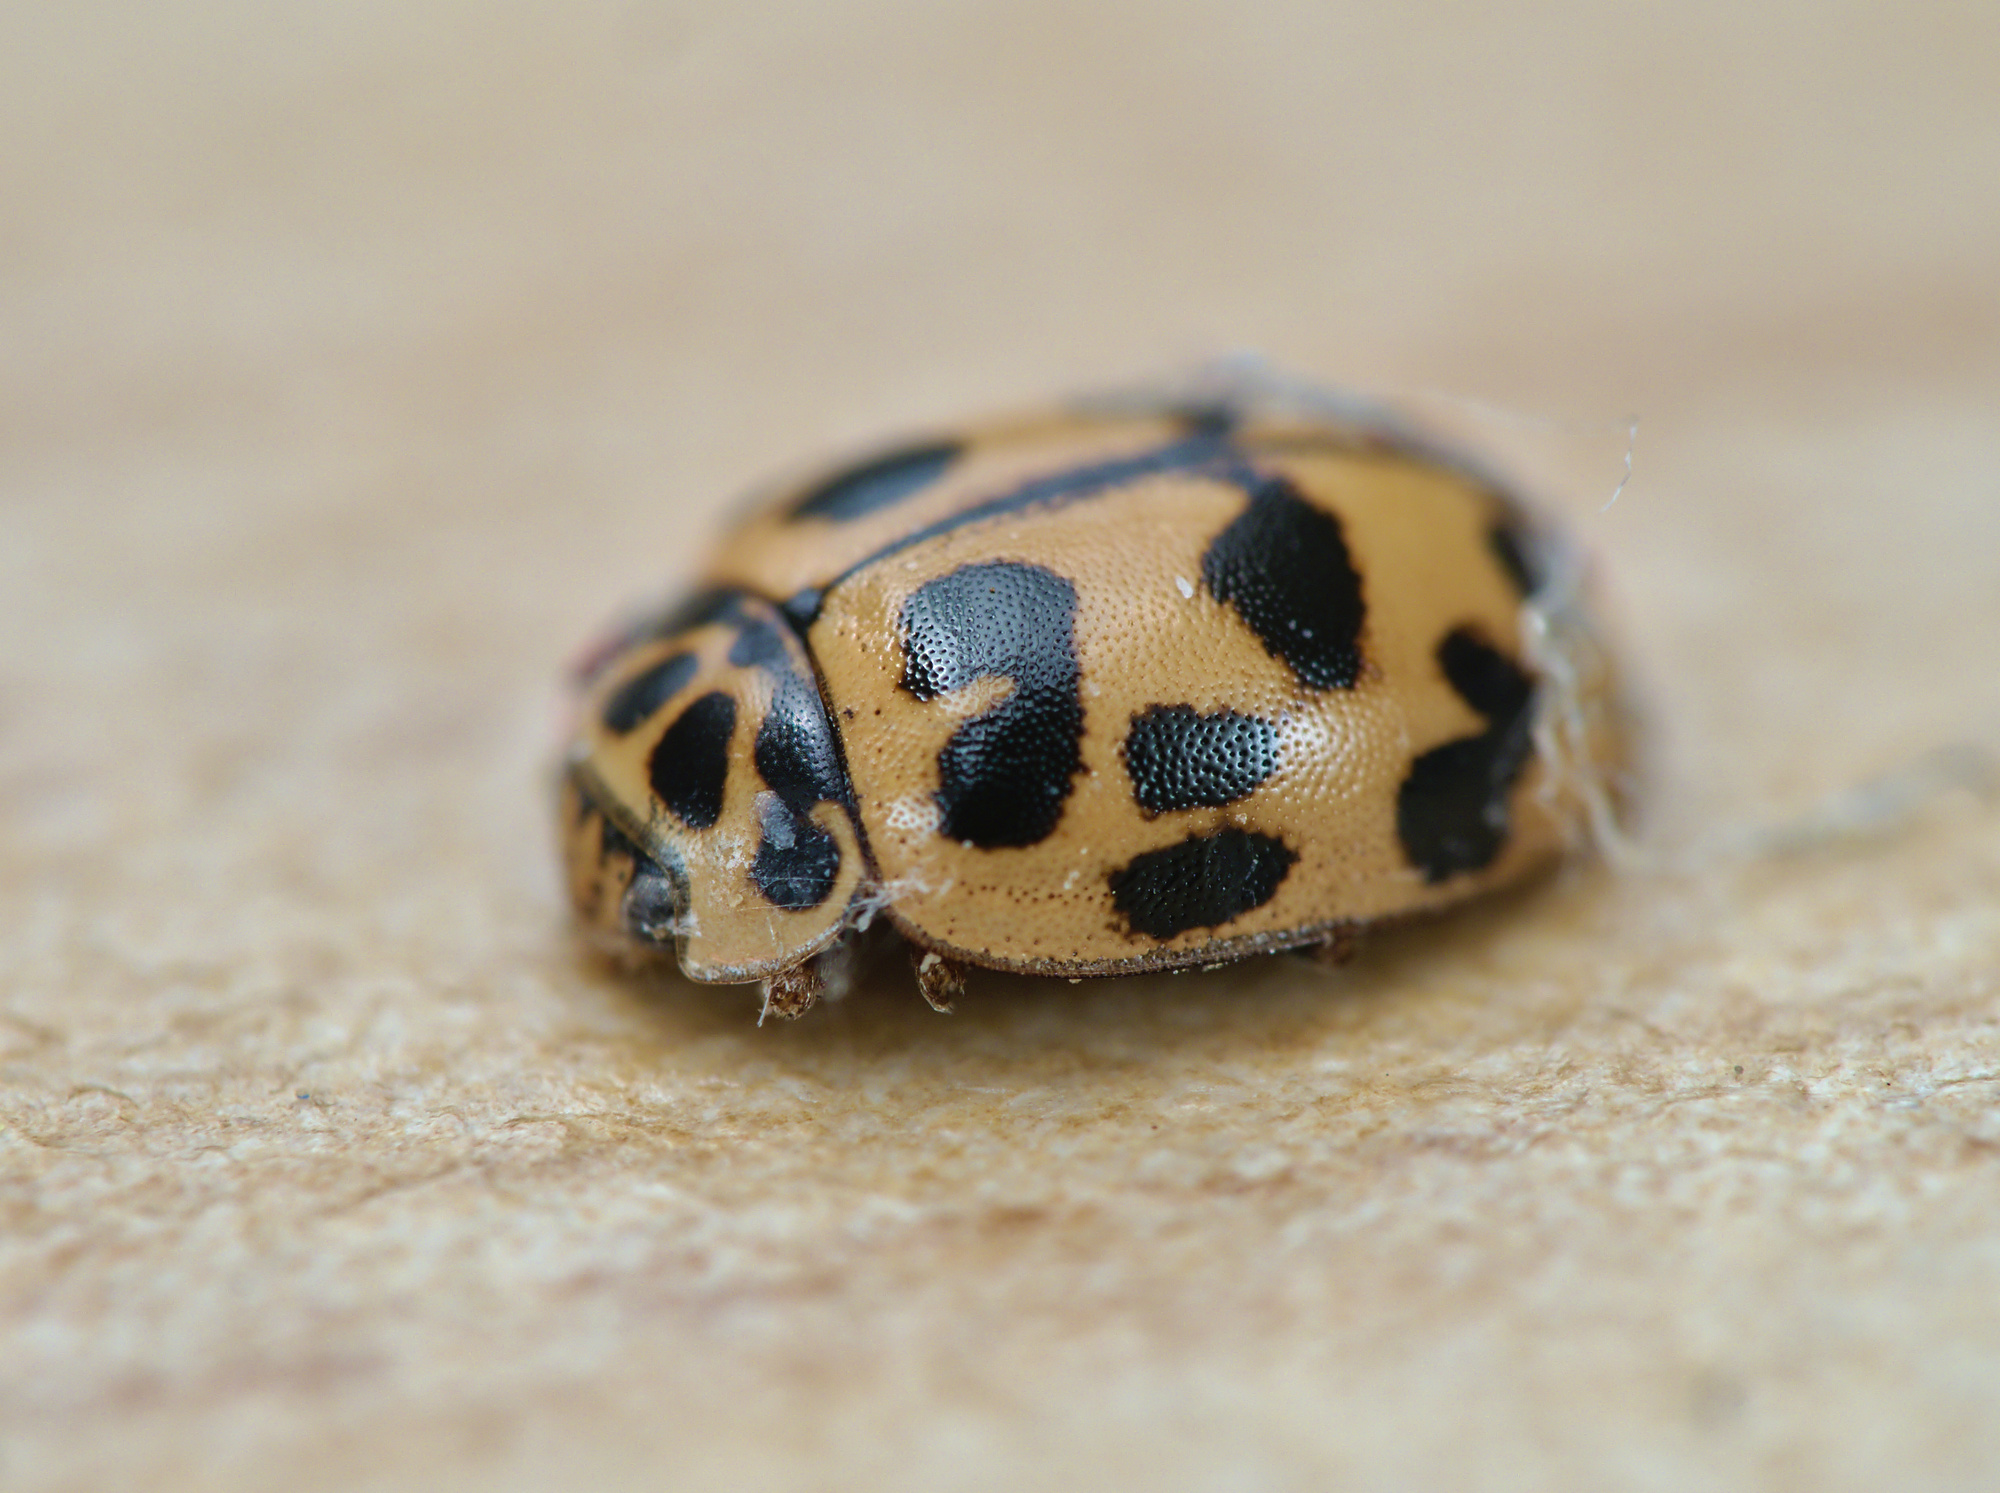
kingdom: Animalia
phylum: Arthropoda
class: Insecta
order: Coleoptera
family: Coccinellidae
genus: Oenopia
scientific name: Oenopia conglobata
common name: Ladybird beetle
